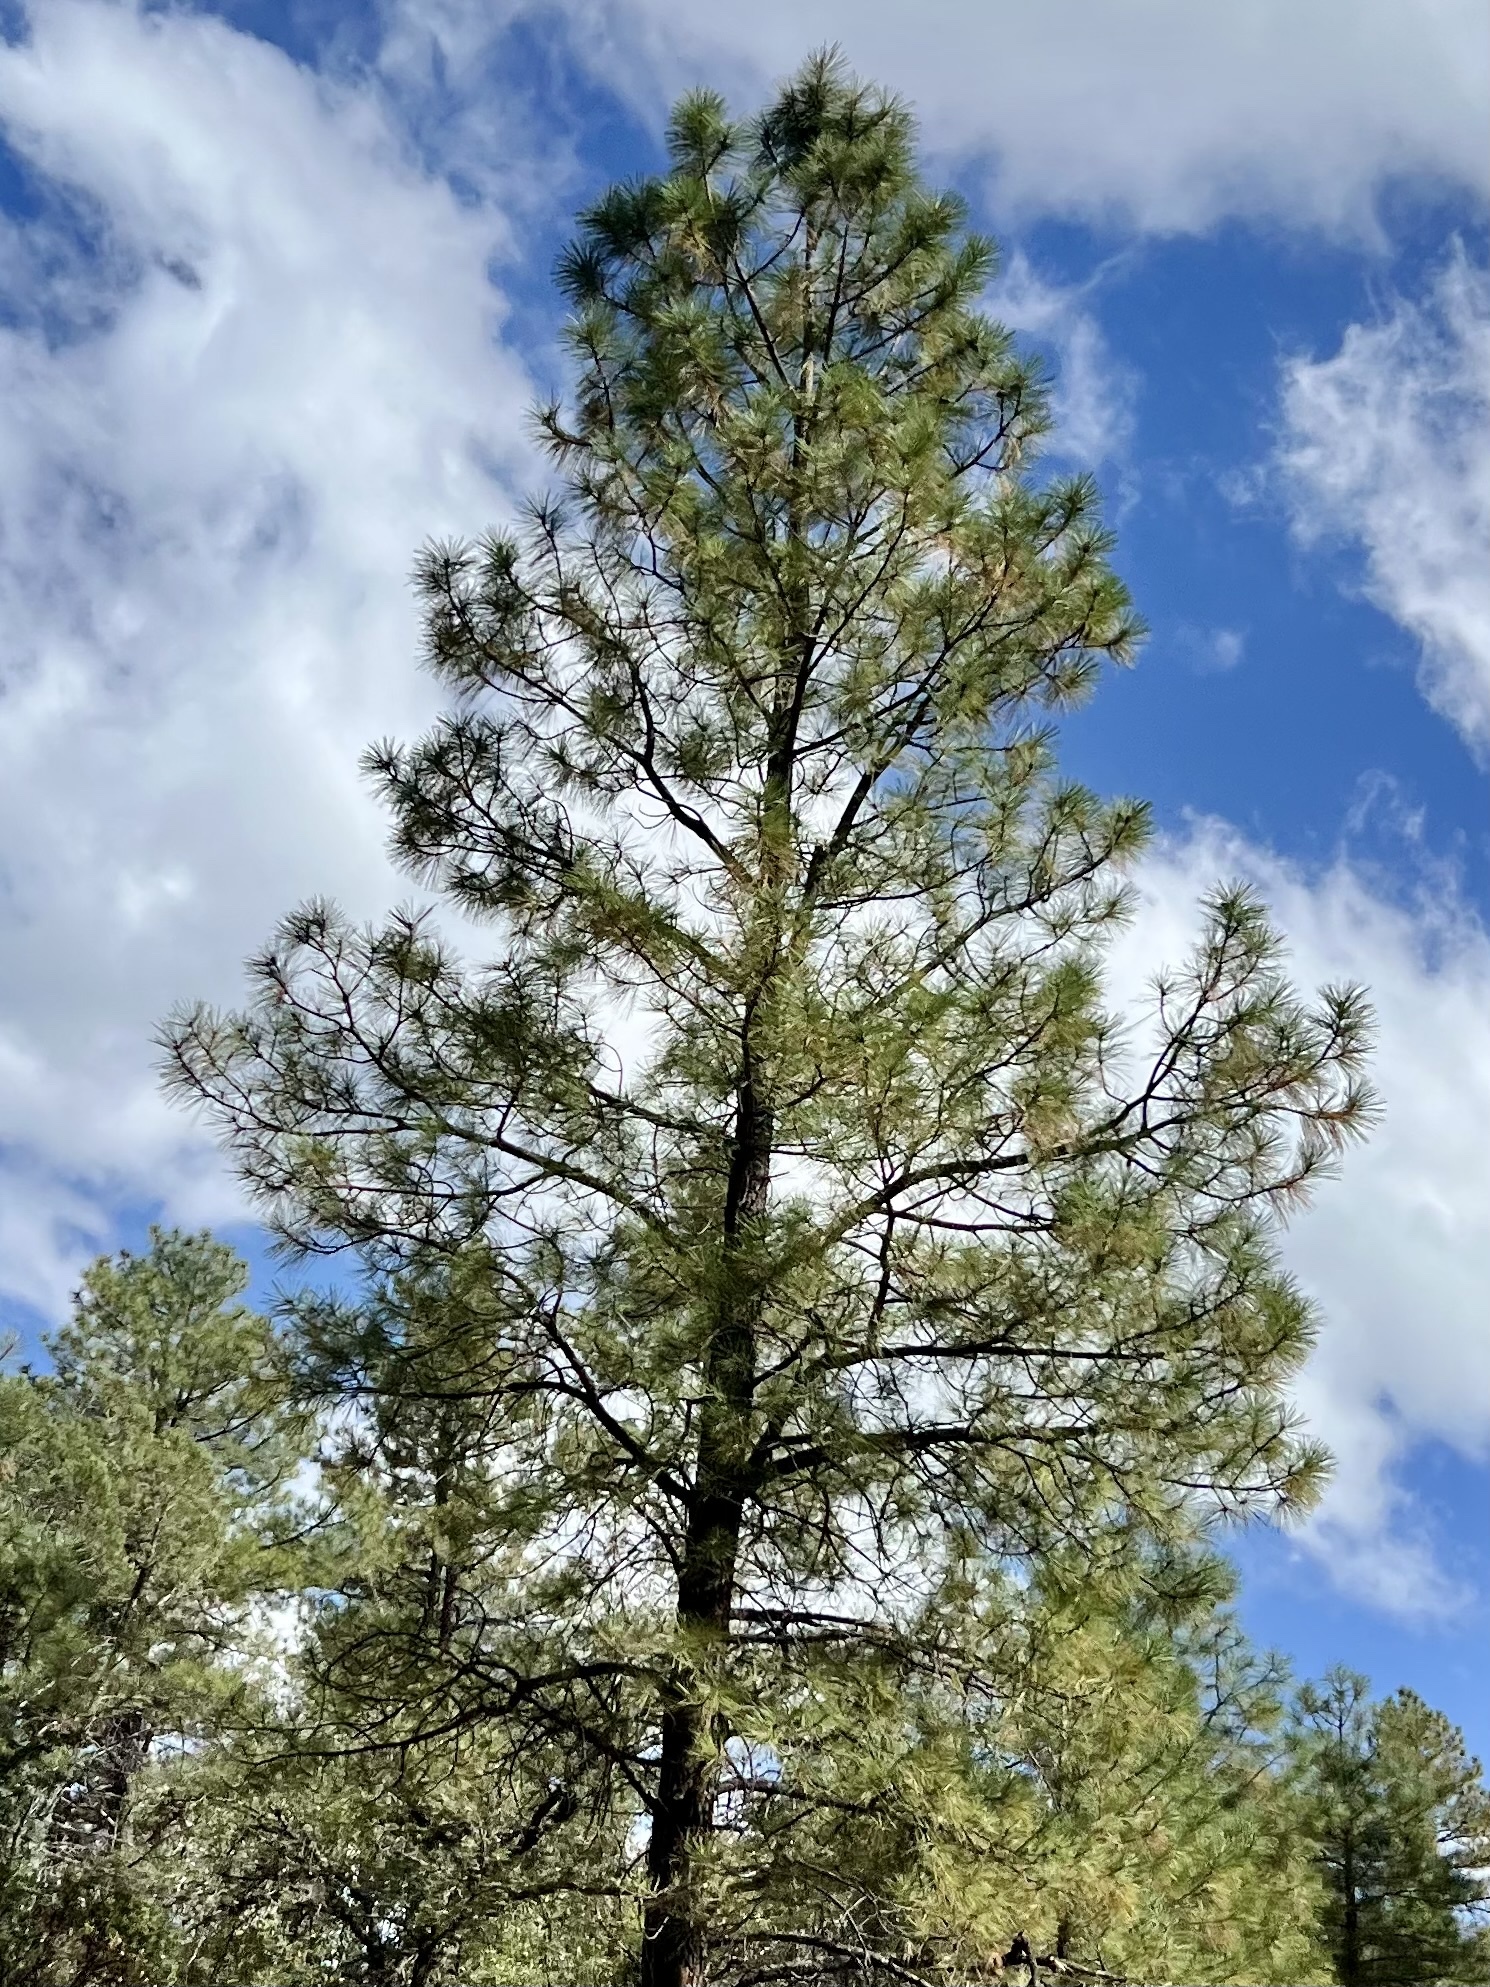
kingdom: Plantae
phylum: Tracheophyta
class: Pinopsida
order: Pinales
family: Pinaceae
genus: Pinus
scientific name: Pinus ponderosa
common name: Western yellow-pine
